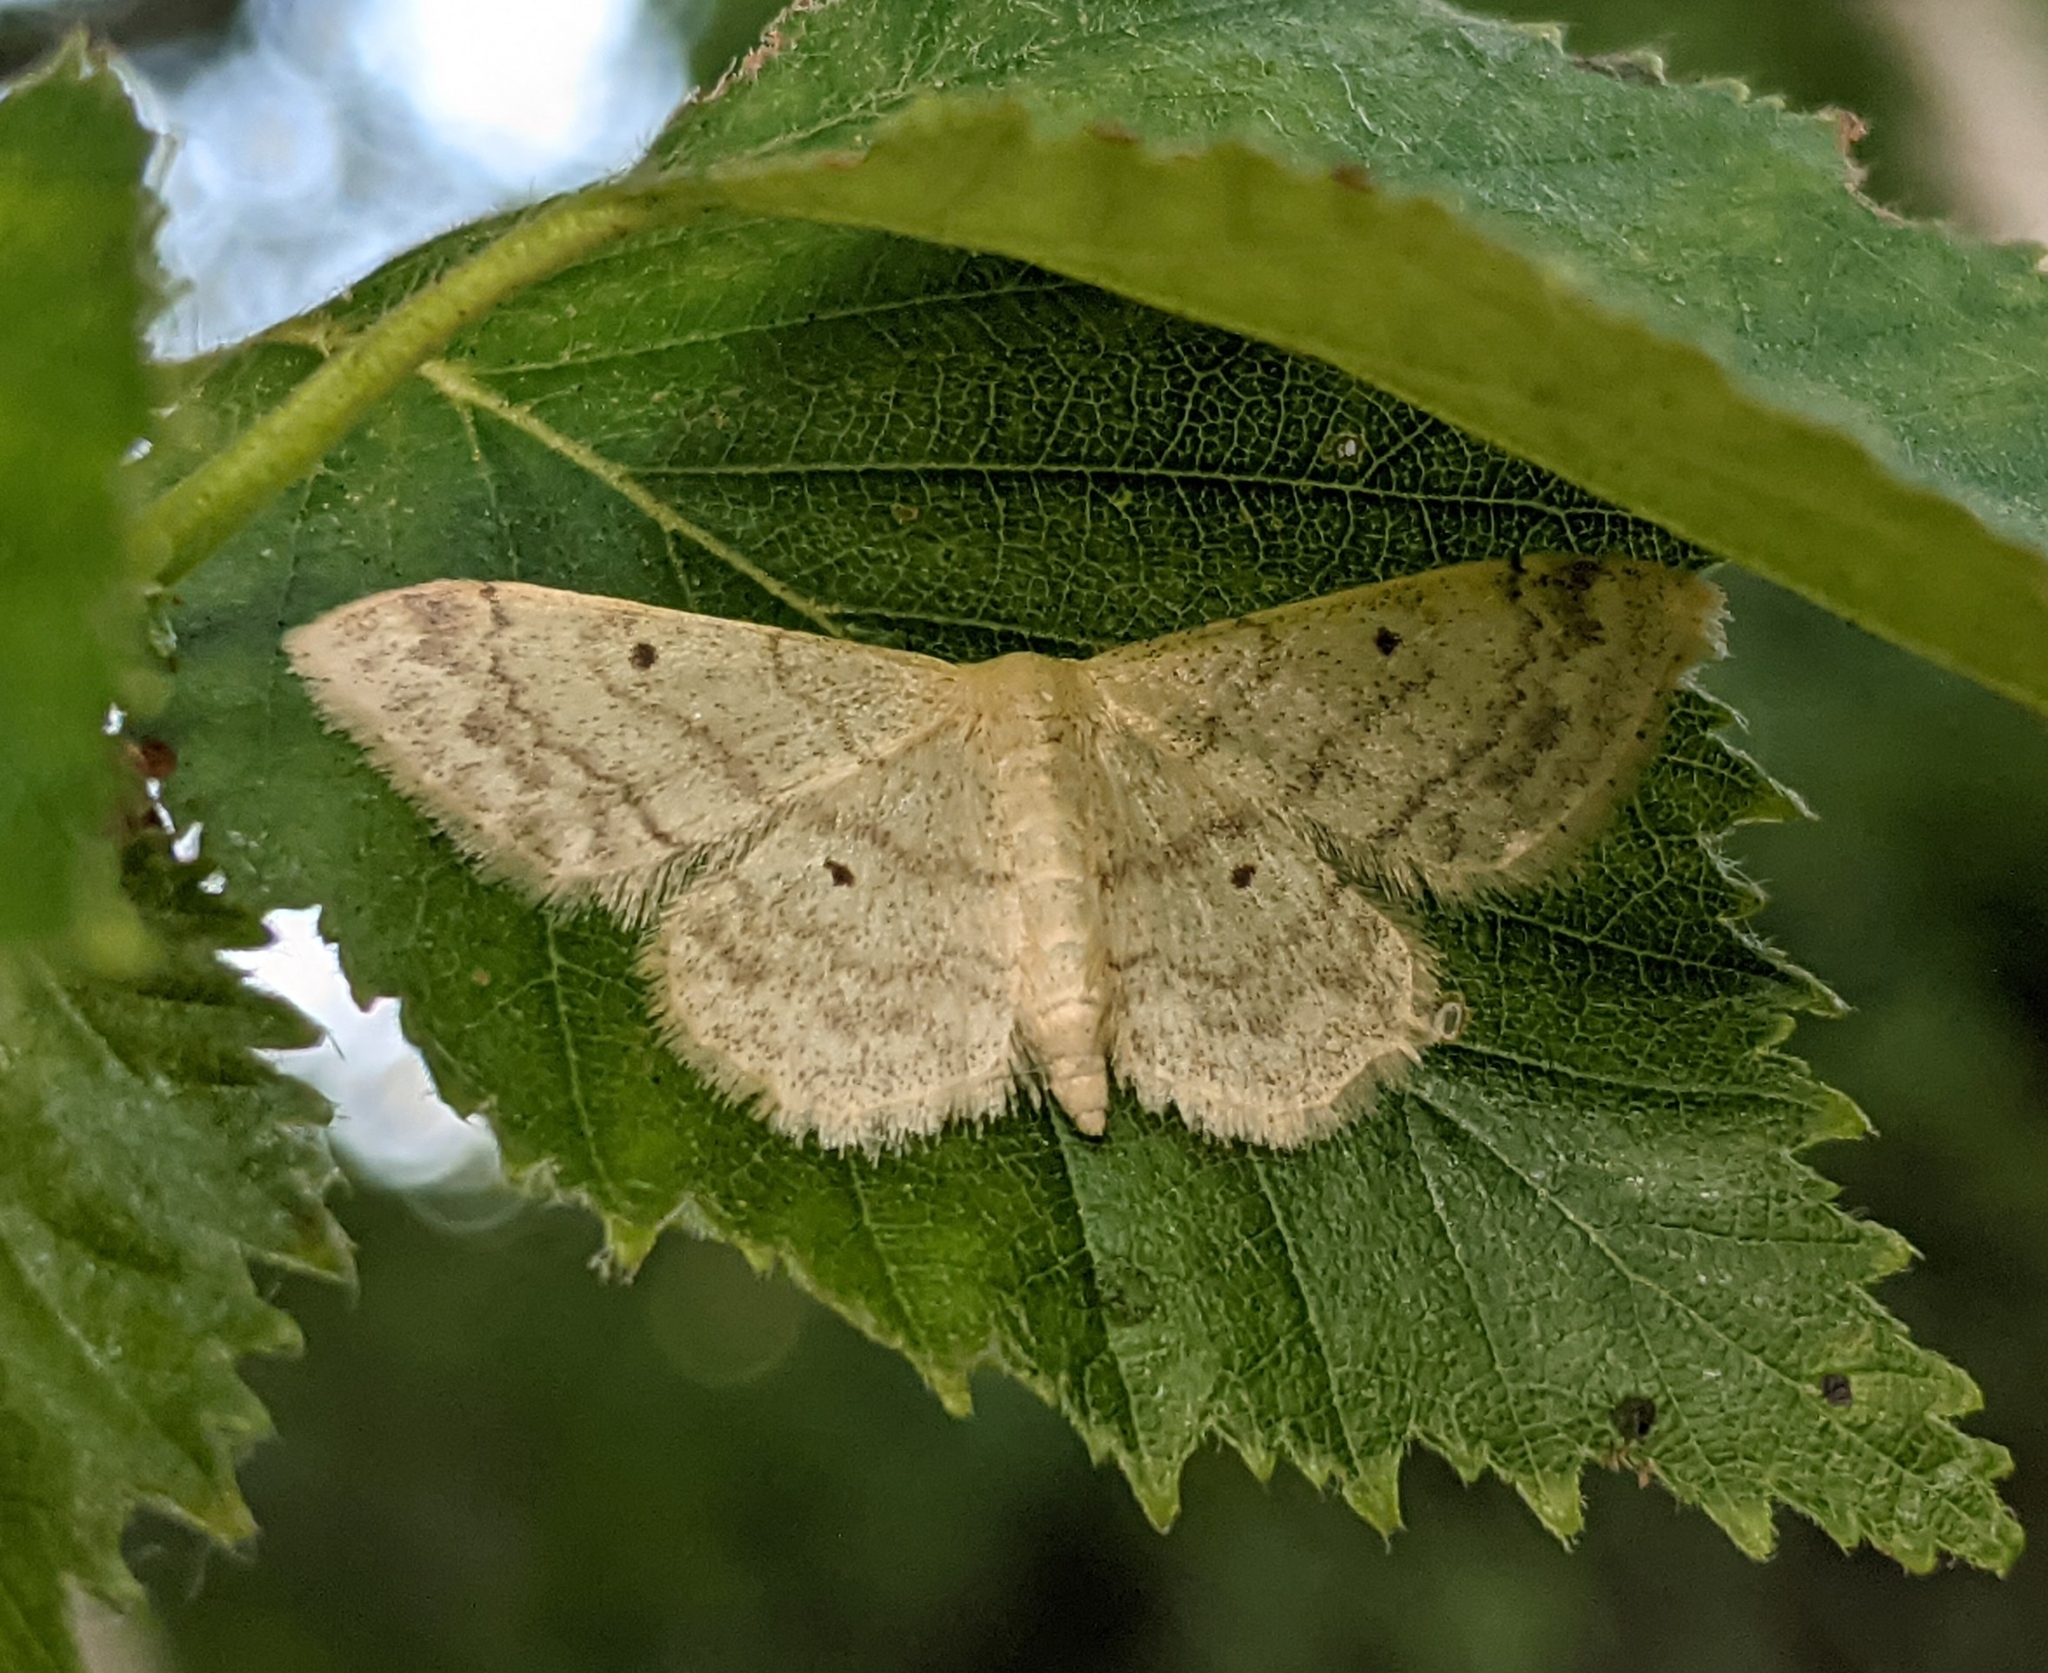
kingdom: Animalia
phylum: Arthropoda
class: Insecta
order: Lepidoptera
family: Geometridae
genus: Idaea
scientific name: Idaea biselata
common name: Small fan-footed wave
